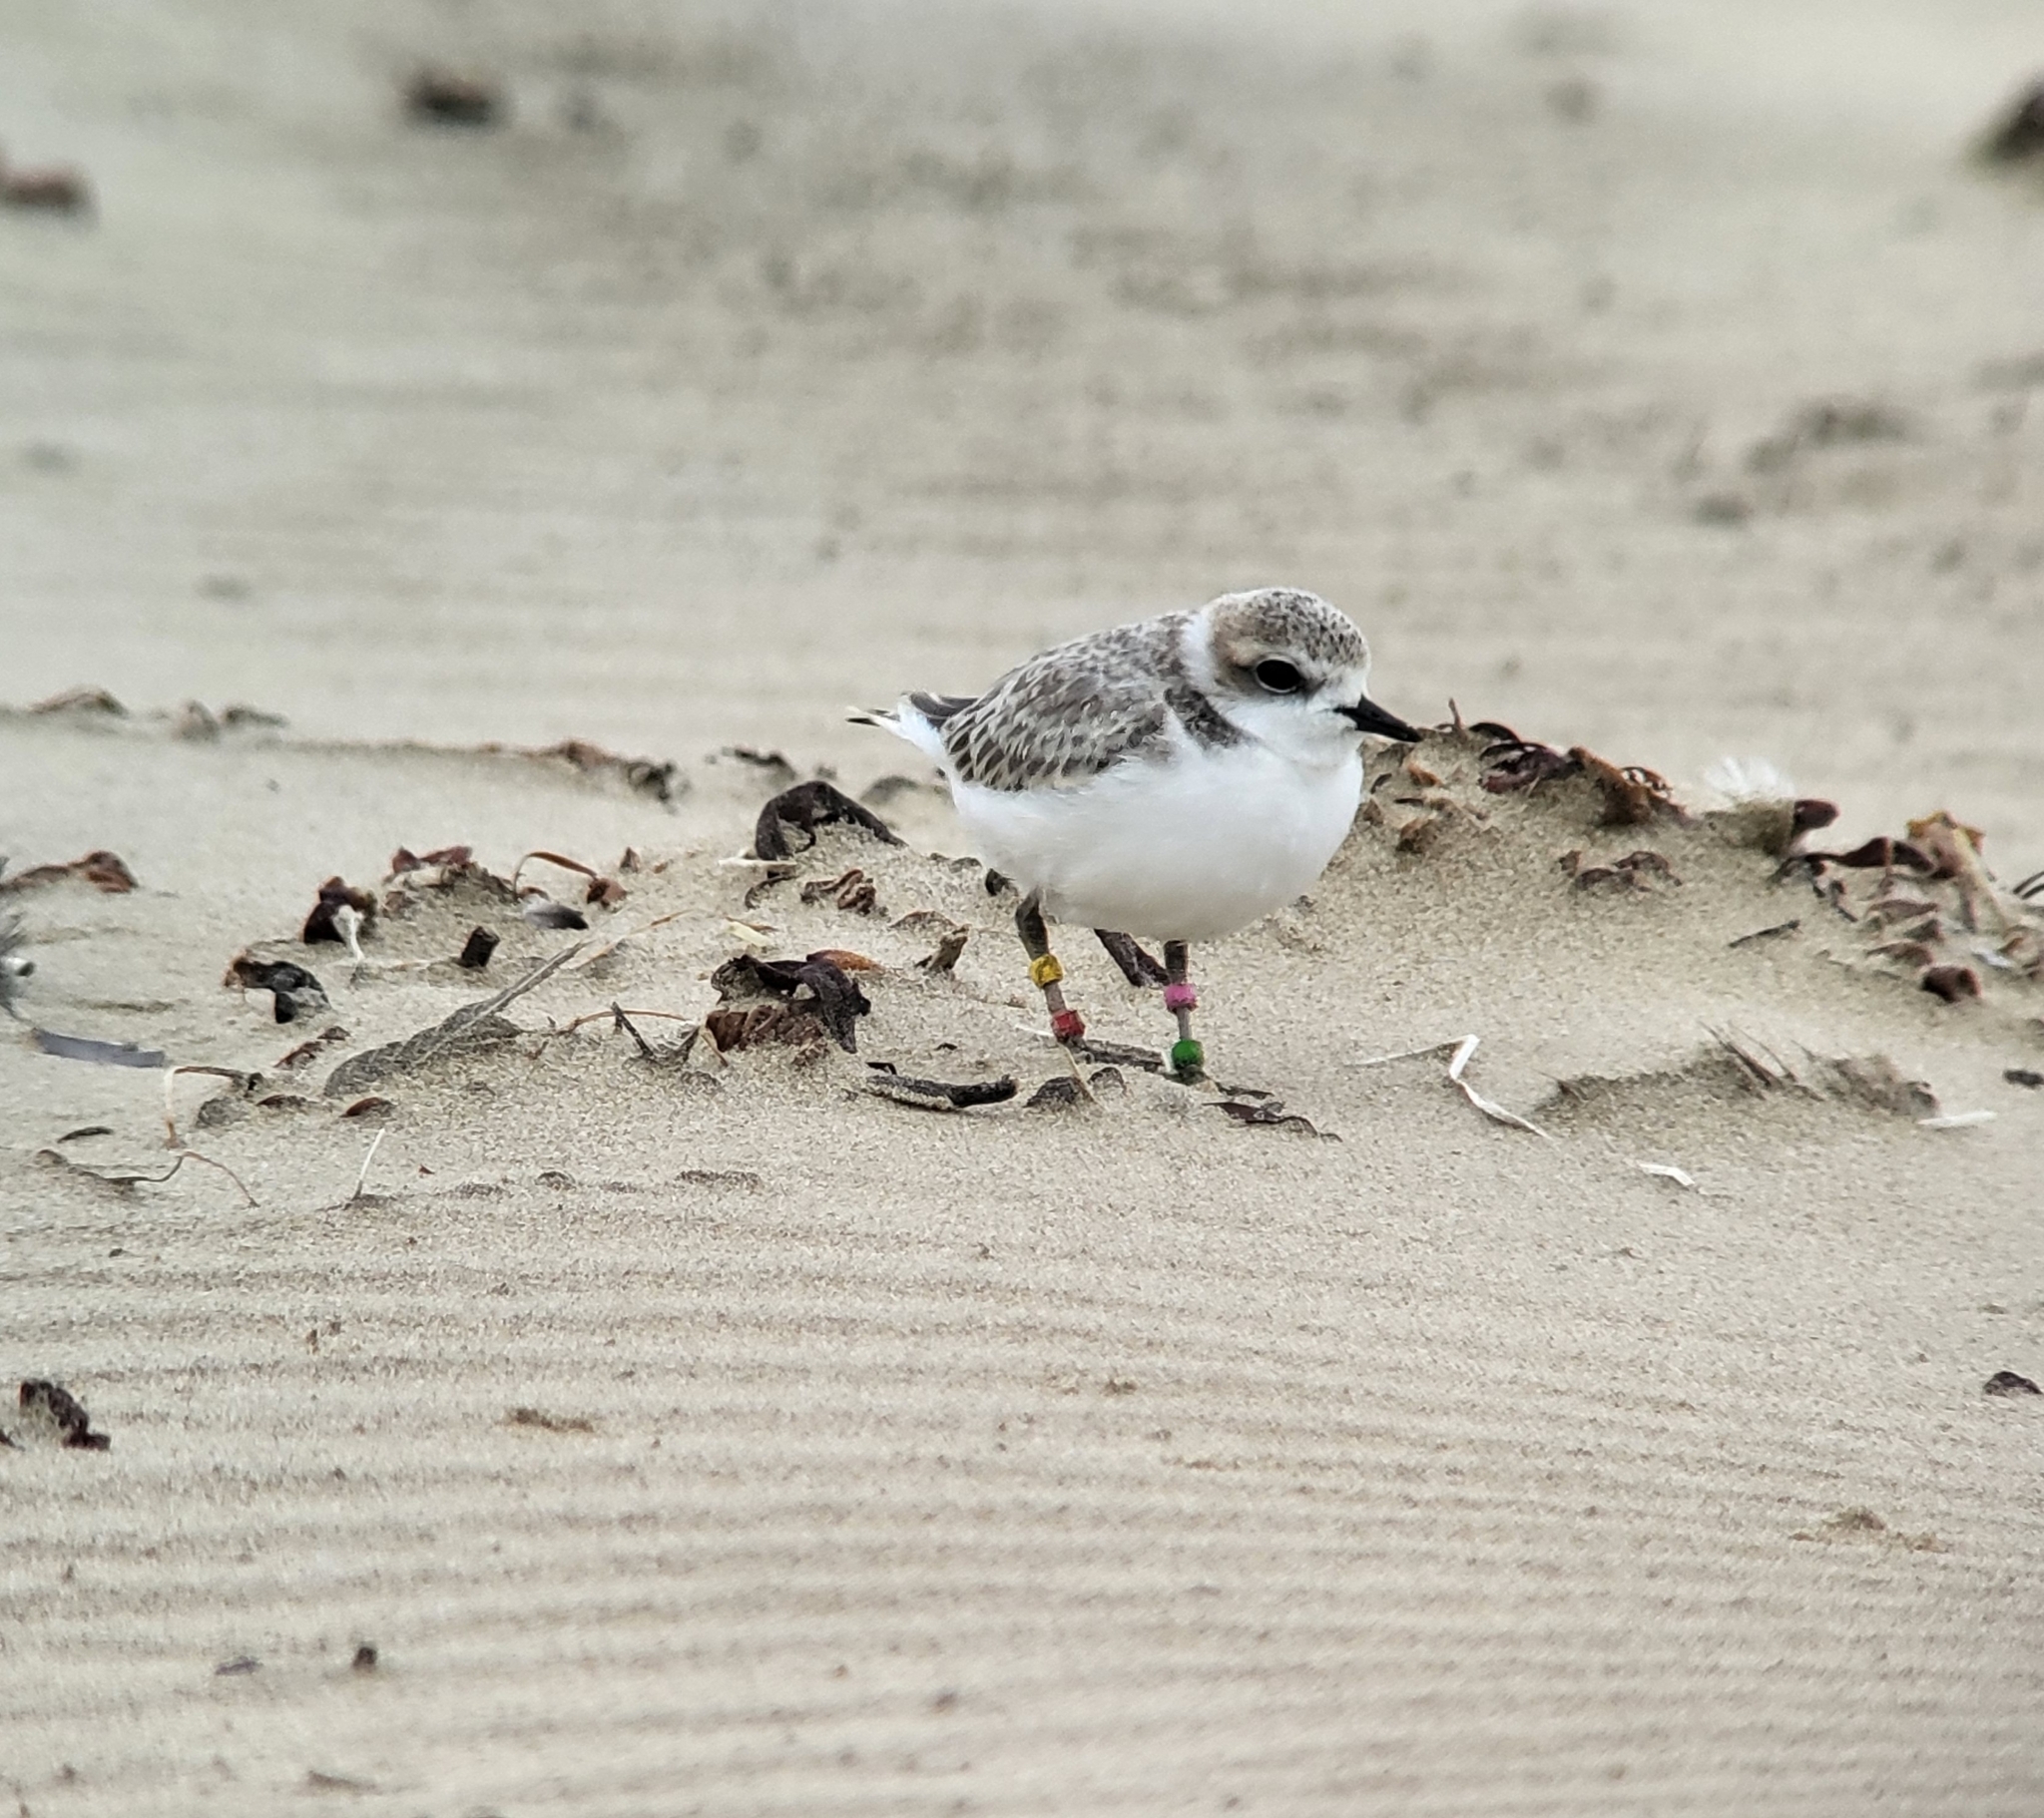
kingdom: Animalia
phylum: Chordata
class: Aves
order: Charadriiformes
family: Charadriidae
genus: Anarhynchus
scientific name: Anarhynchus
